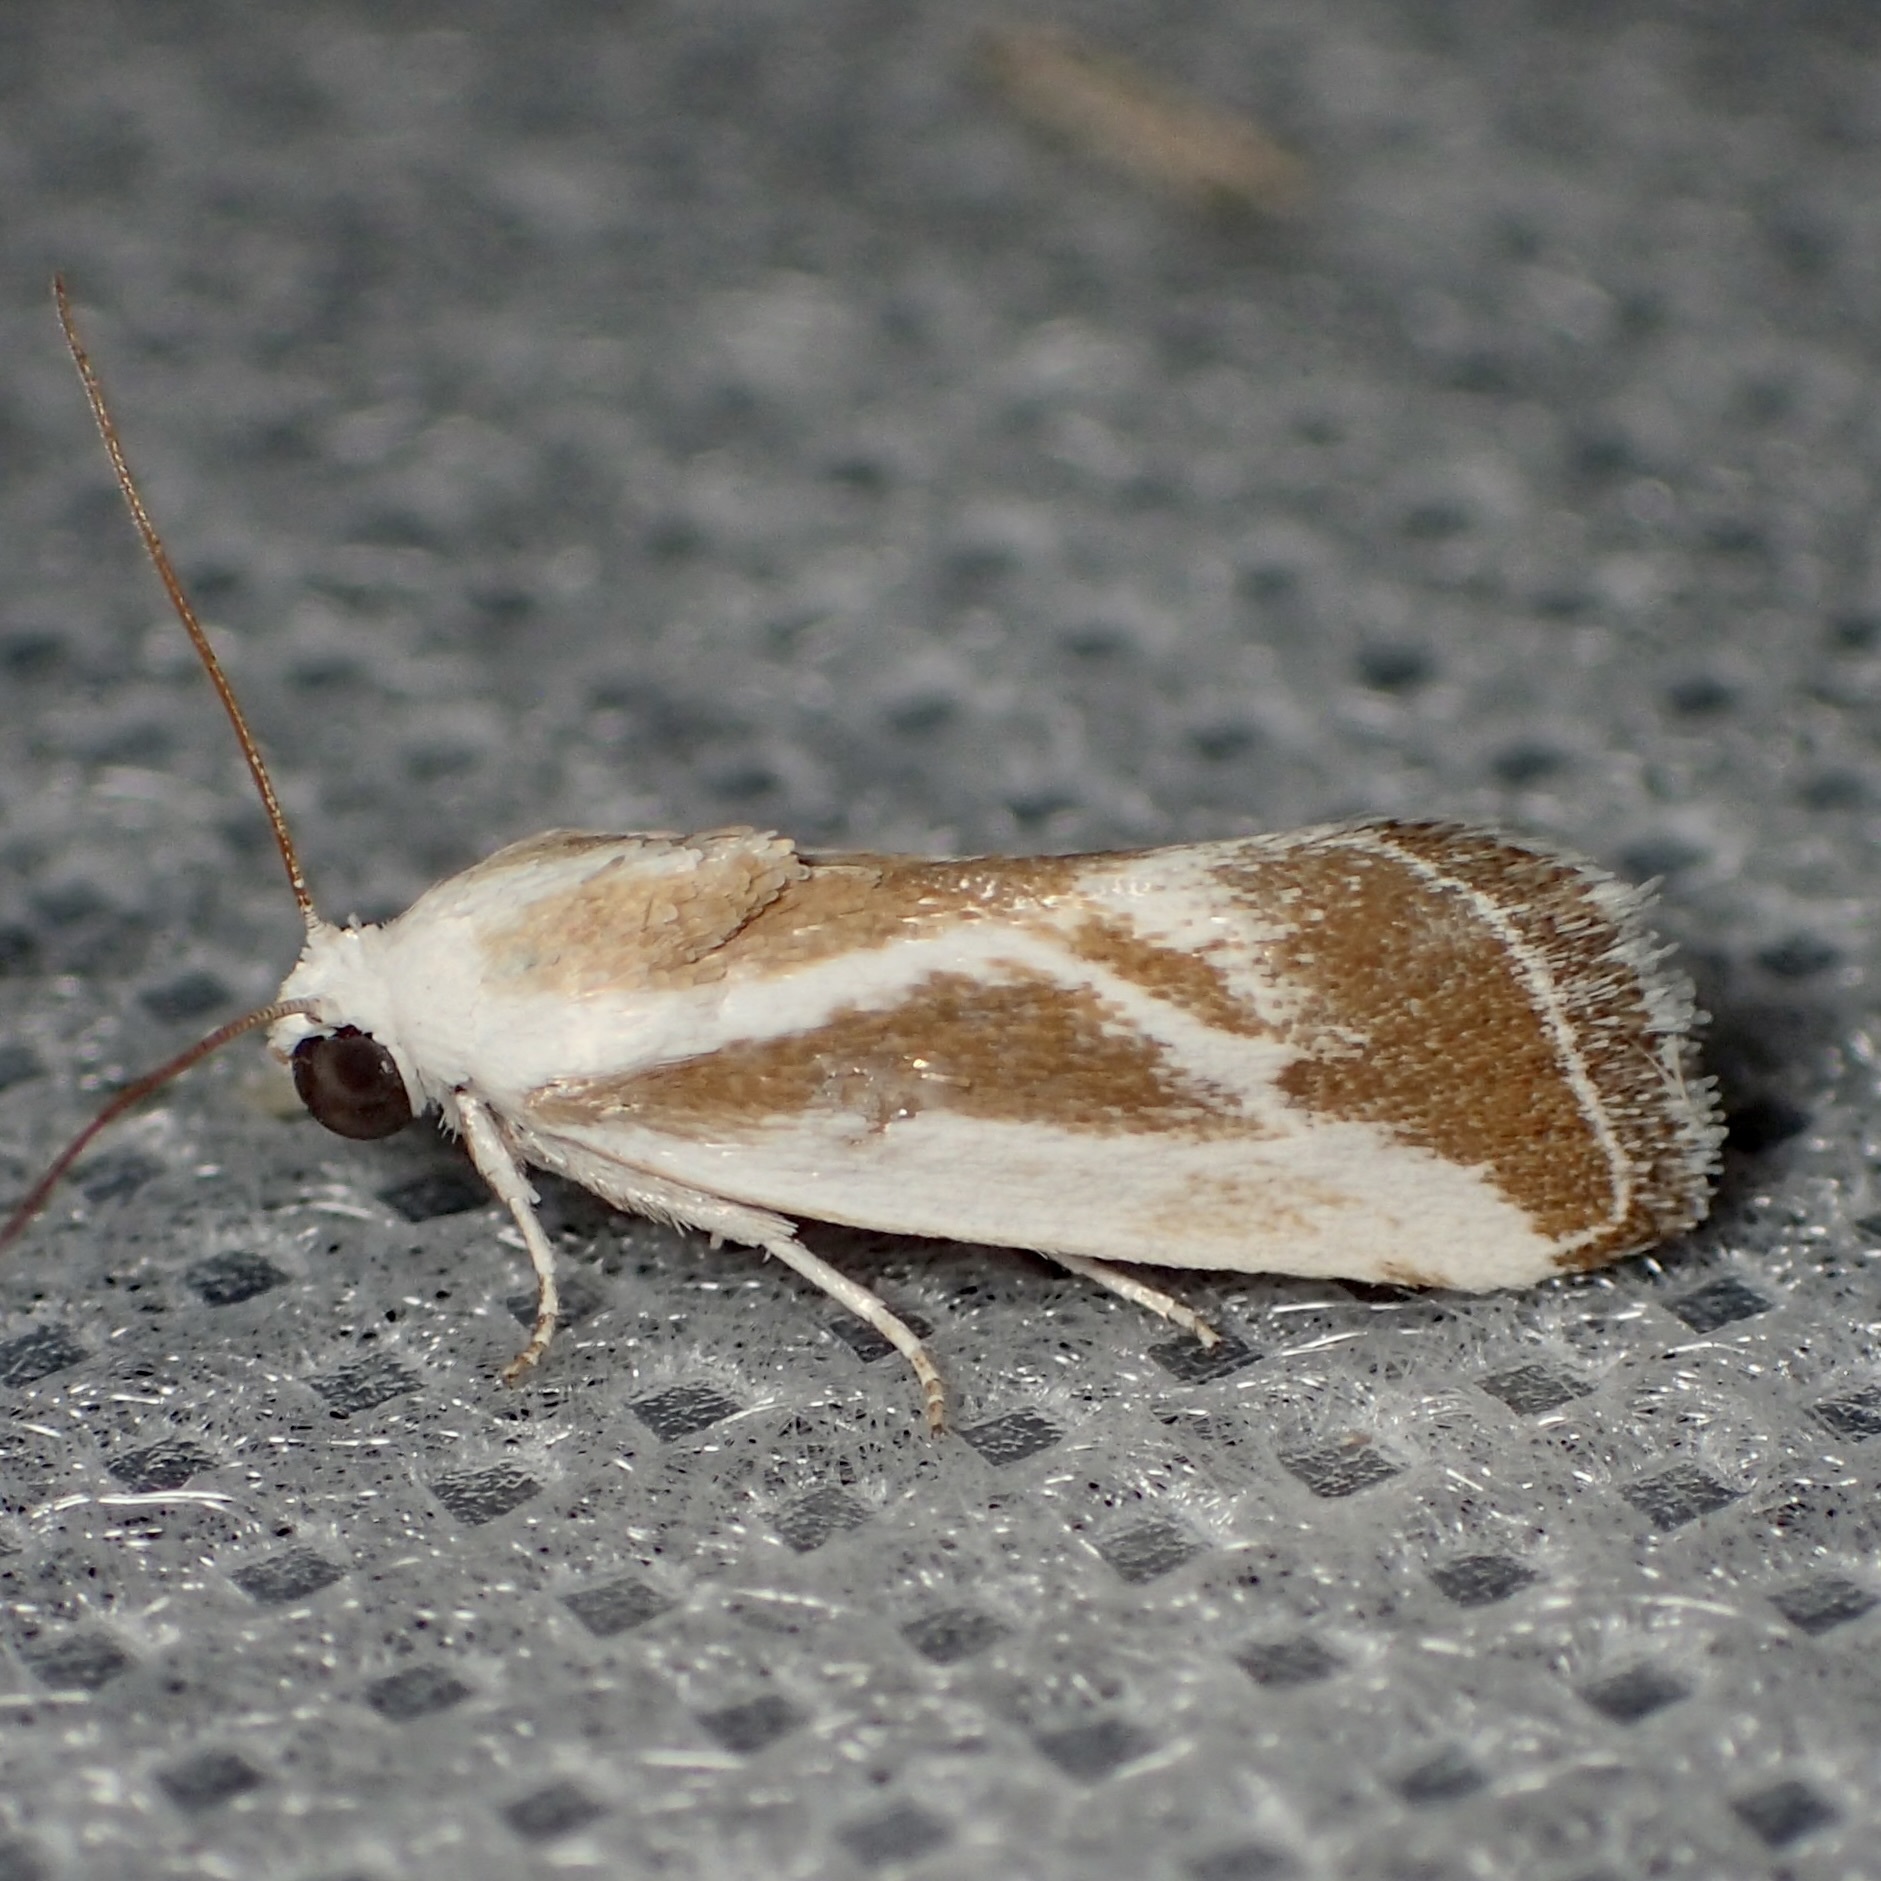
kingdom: Animalia
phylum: Arthropoda
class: Insecta
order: Lepidoptera
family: Noctuidae
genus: Acontia
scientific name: Acontia alata
